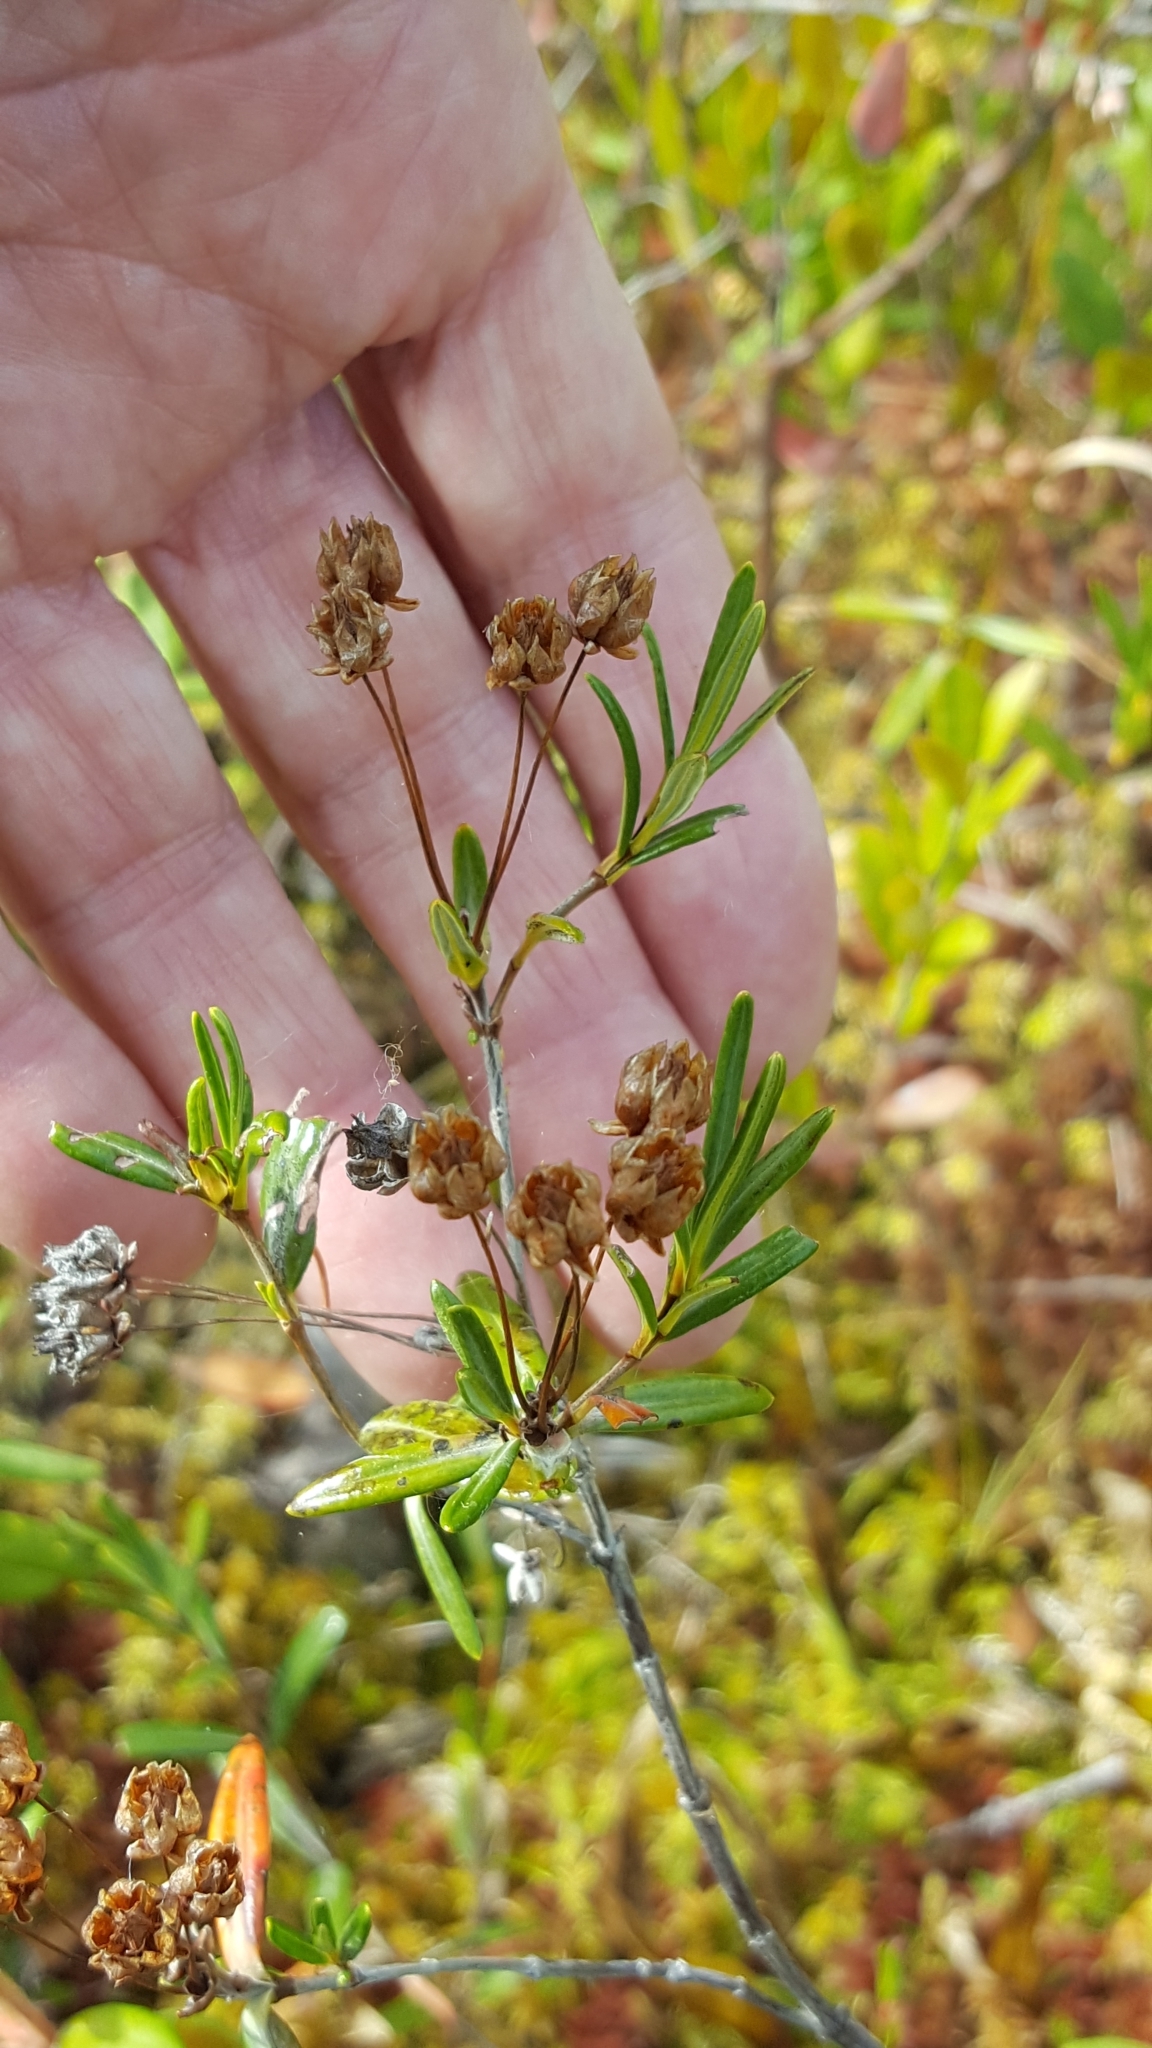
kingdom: Plantae
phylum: Tracheophyta
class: Magnoliopsida
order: Ericales
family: Ericaceae
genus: Kalmia
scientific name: Kalmia polifolia
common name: Bog-laurel
